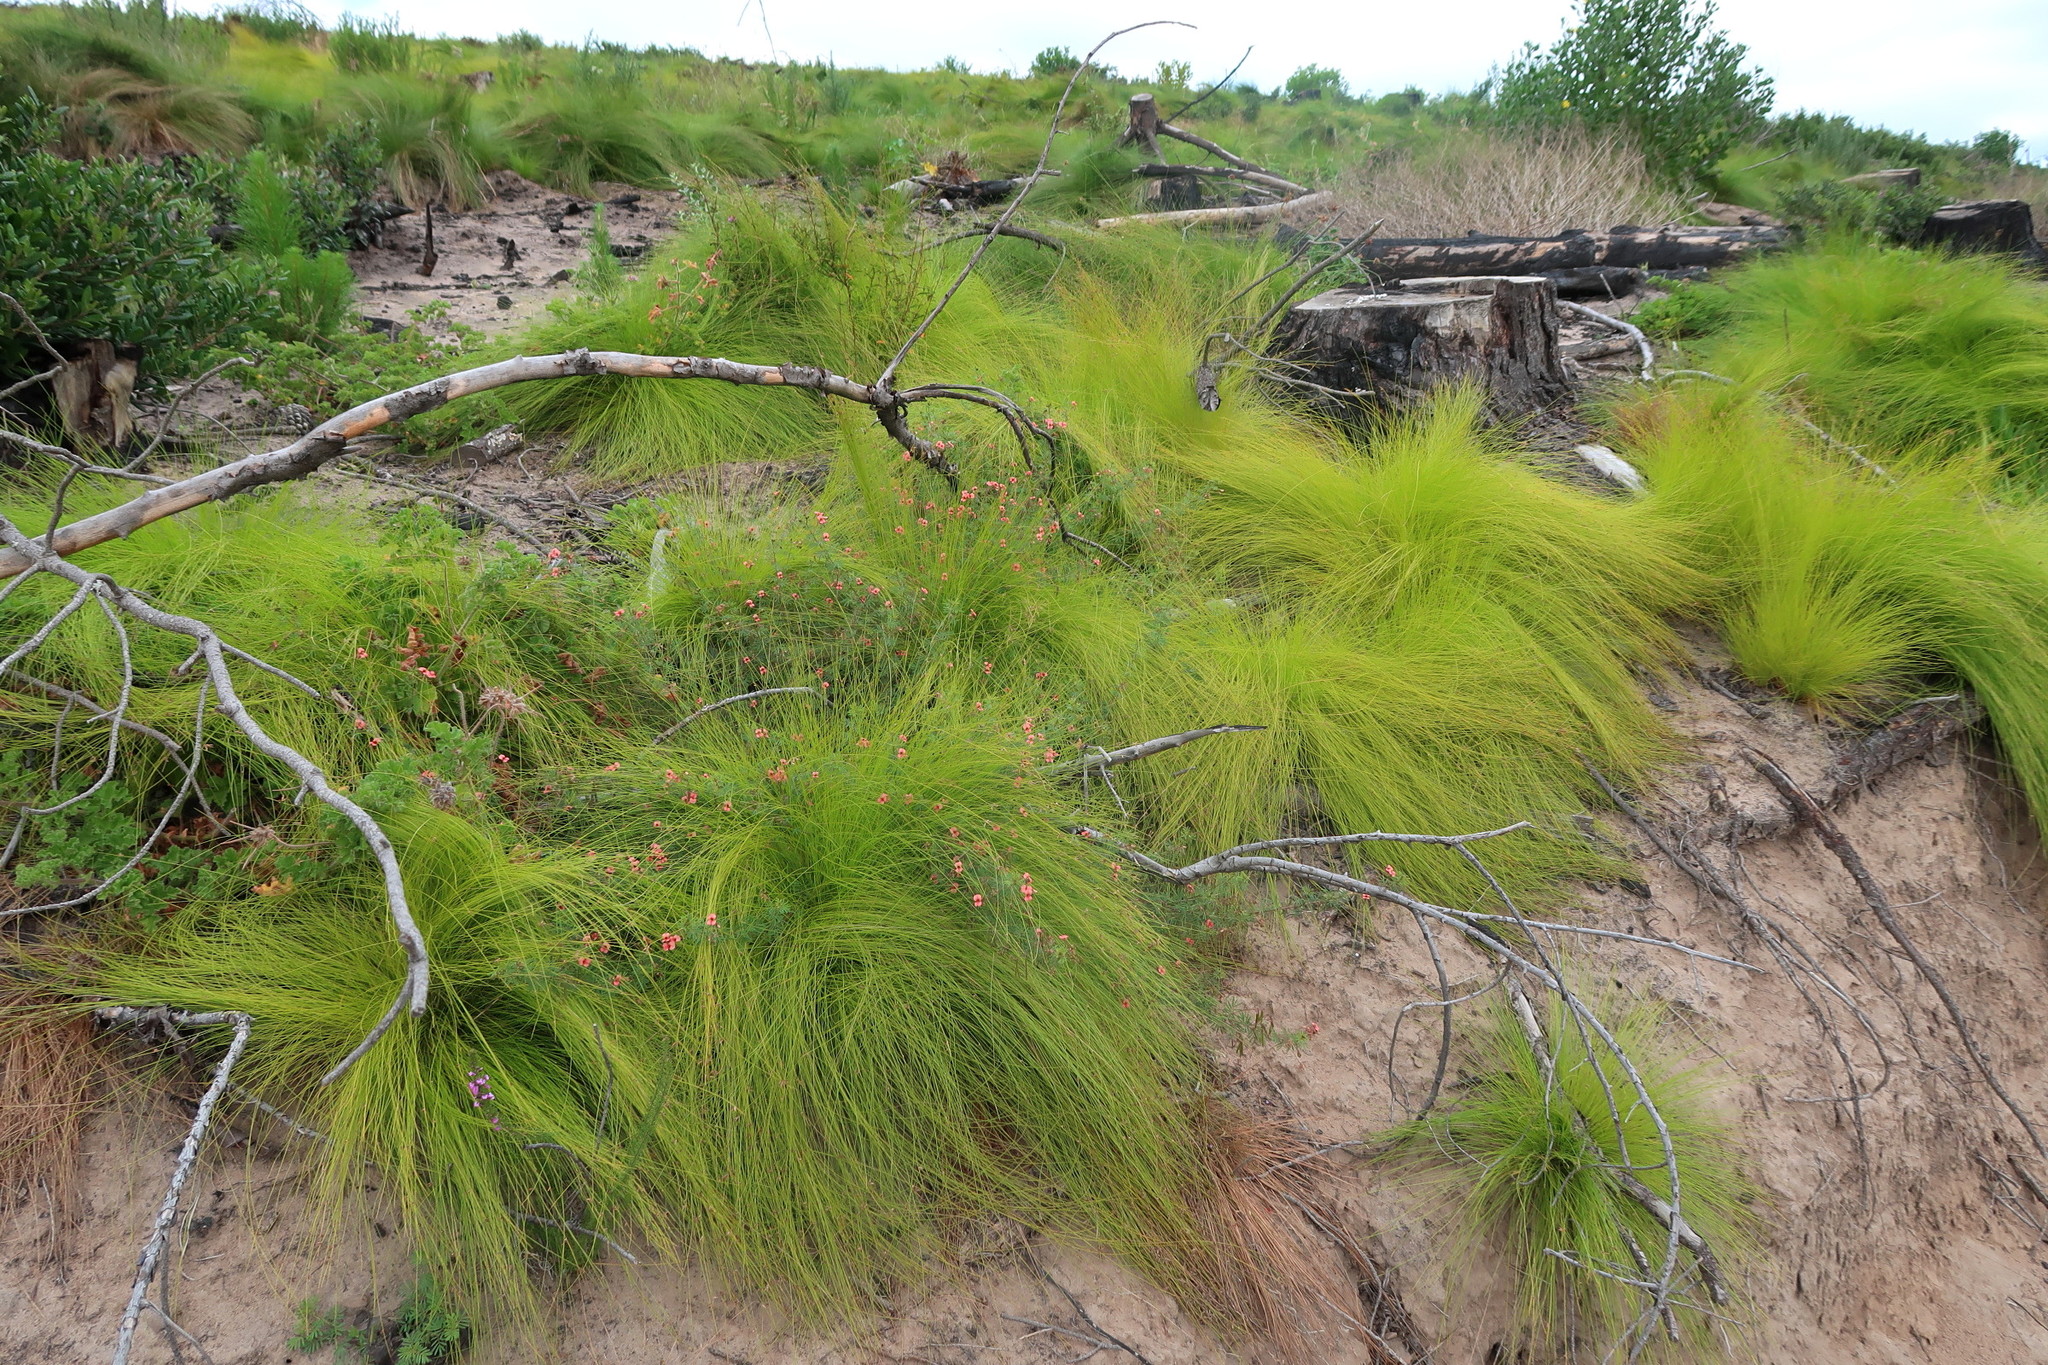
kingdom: Plantae
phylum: Tracheophyta
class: Liliopsida
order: Poales
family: Cyperaceae
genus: Ficinia
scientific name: Ficinia acuminata
